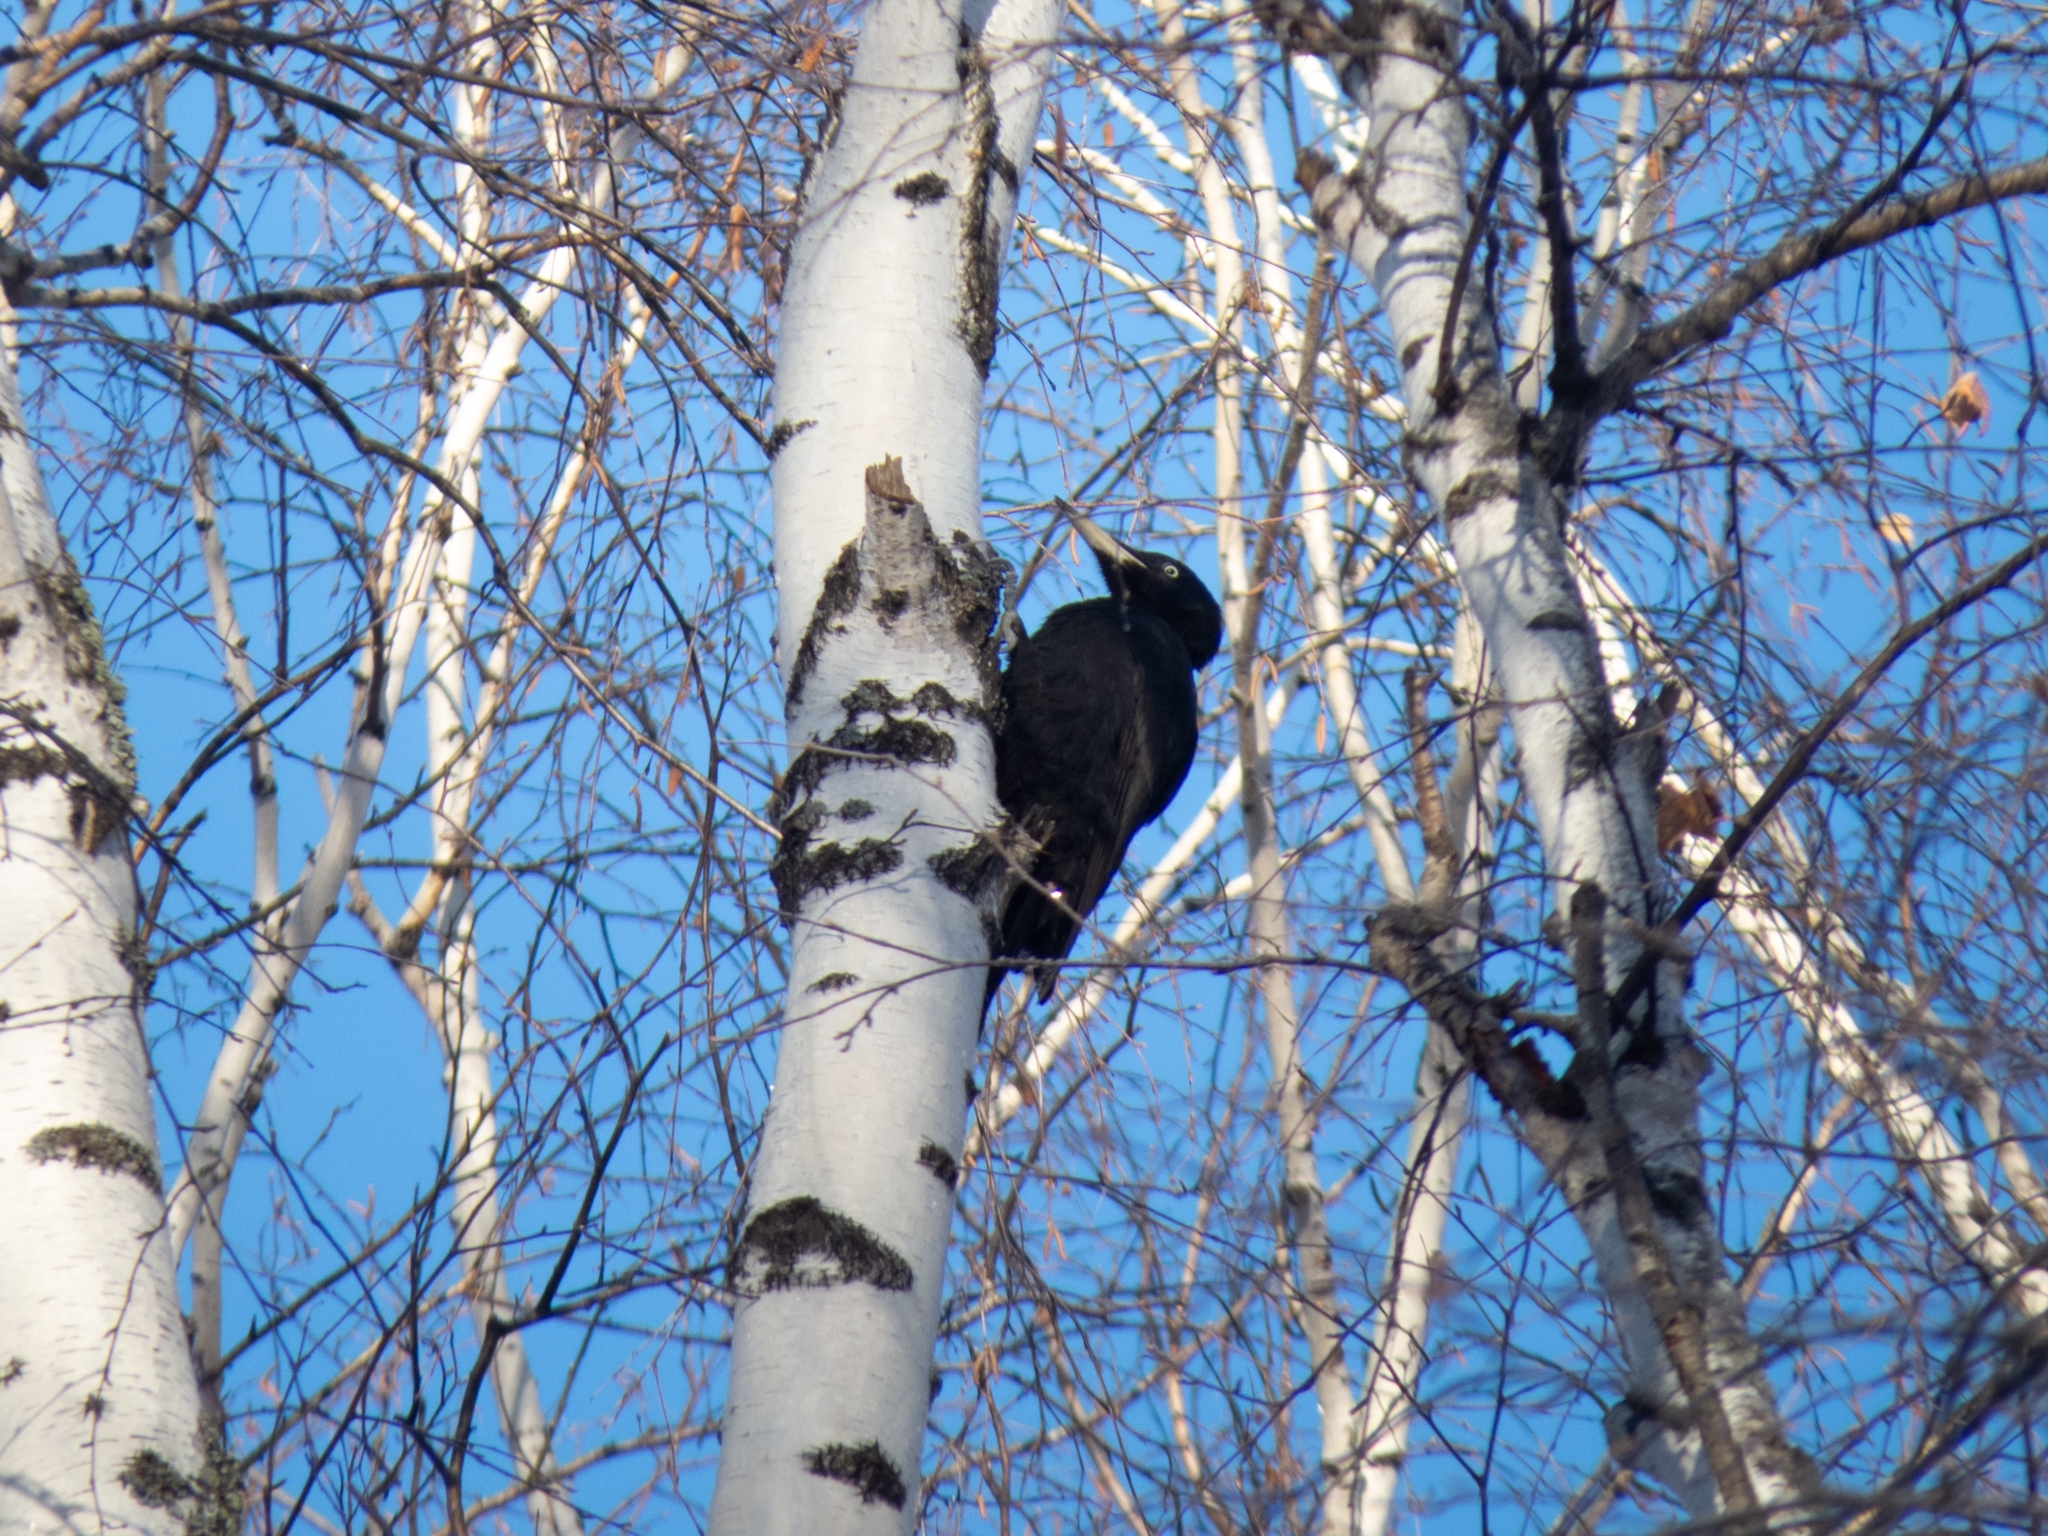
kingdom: Animalia
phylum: Chordata
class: Aves
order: Piciformes
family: Picidae
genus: Dryocopus
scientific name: Dryocopus martius
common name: Black woodpecker
